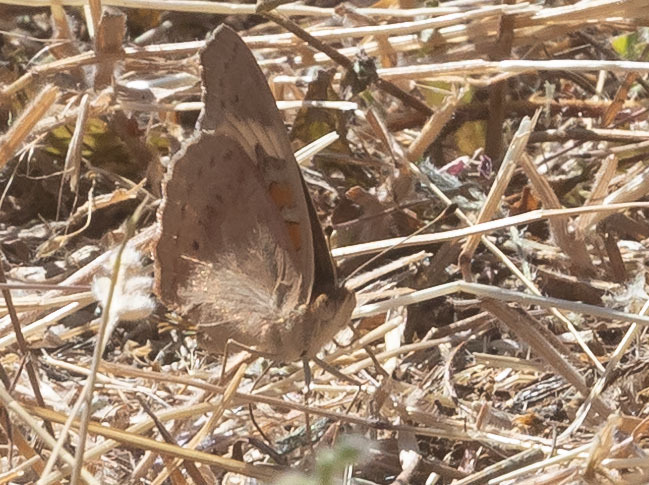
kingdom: Animalia
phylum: Arthropoda
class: Insecta
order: Lepidoptera
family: Nymphalidae
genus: Junonia
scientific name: Junonia grisea
